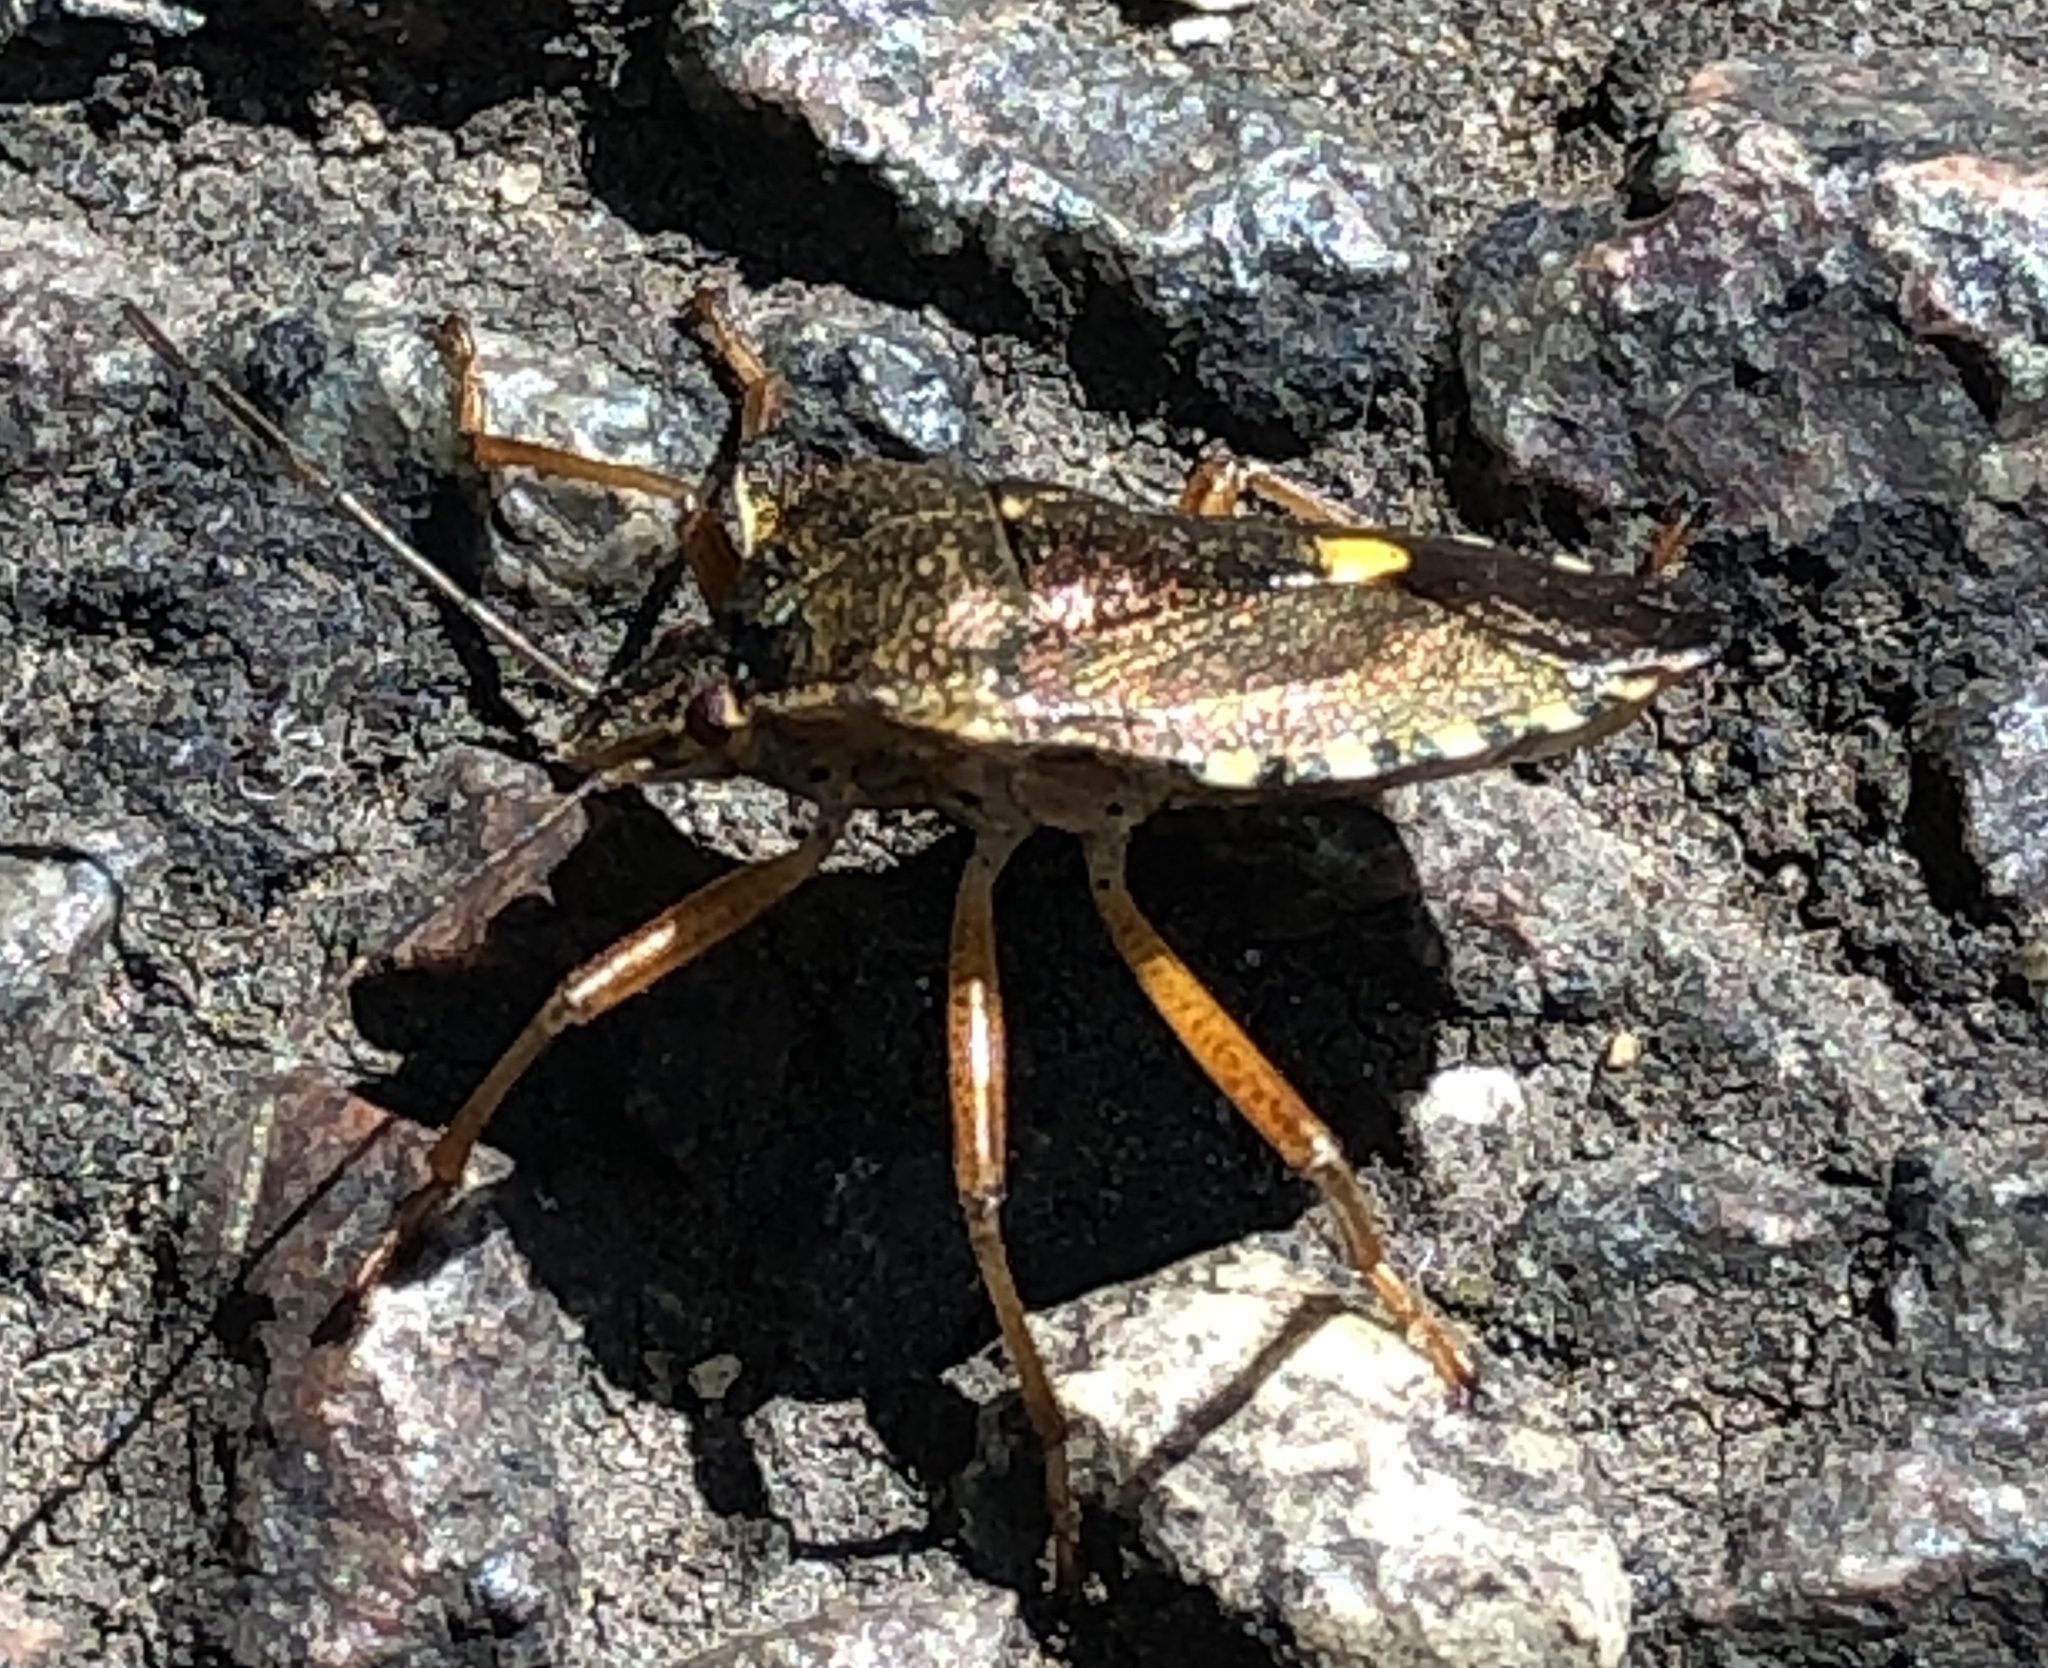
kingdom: Animalia
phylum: Arthropoda
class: Insecta
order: Hemiptera
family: Pentatomidae
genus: Pentatoma
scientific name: Pentatoma rufipes
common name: Forest bug
